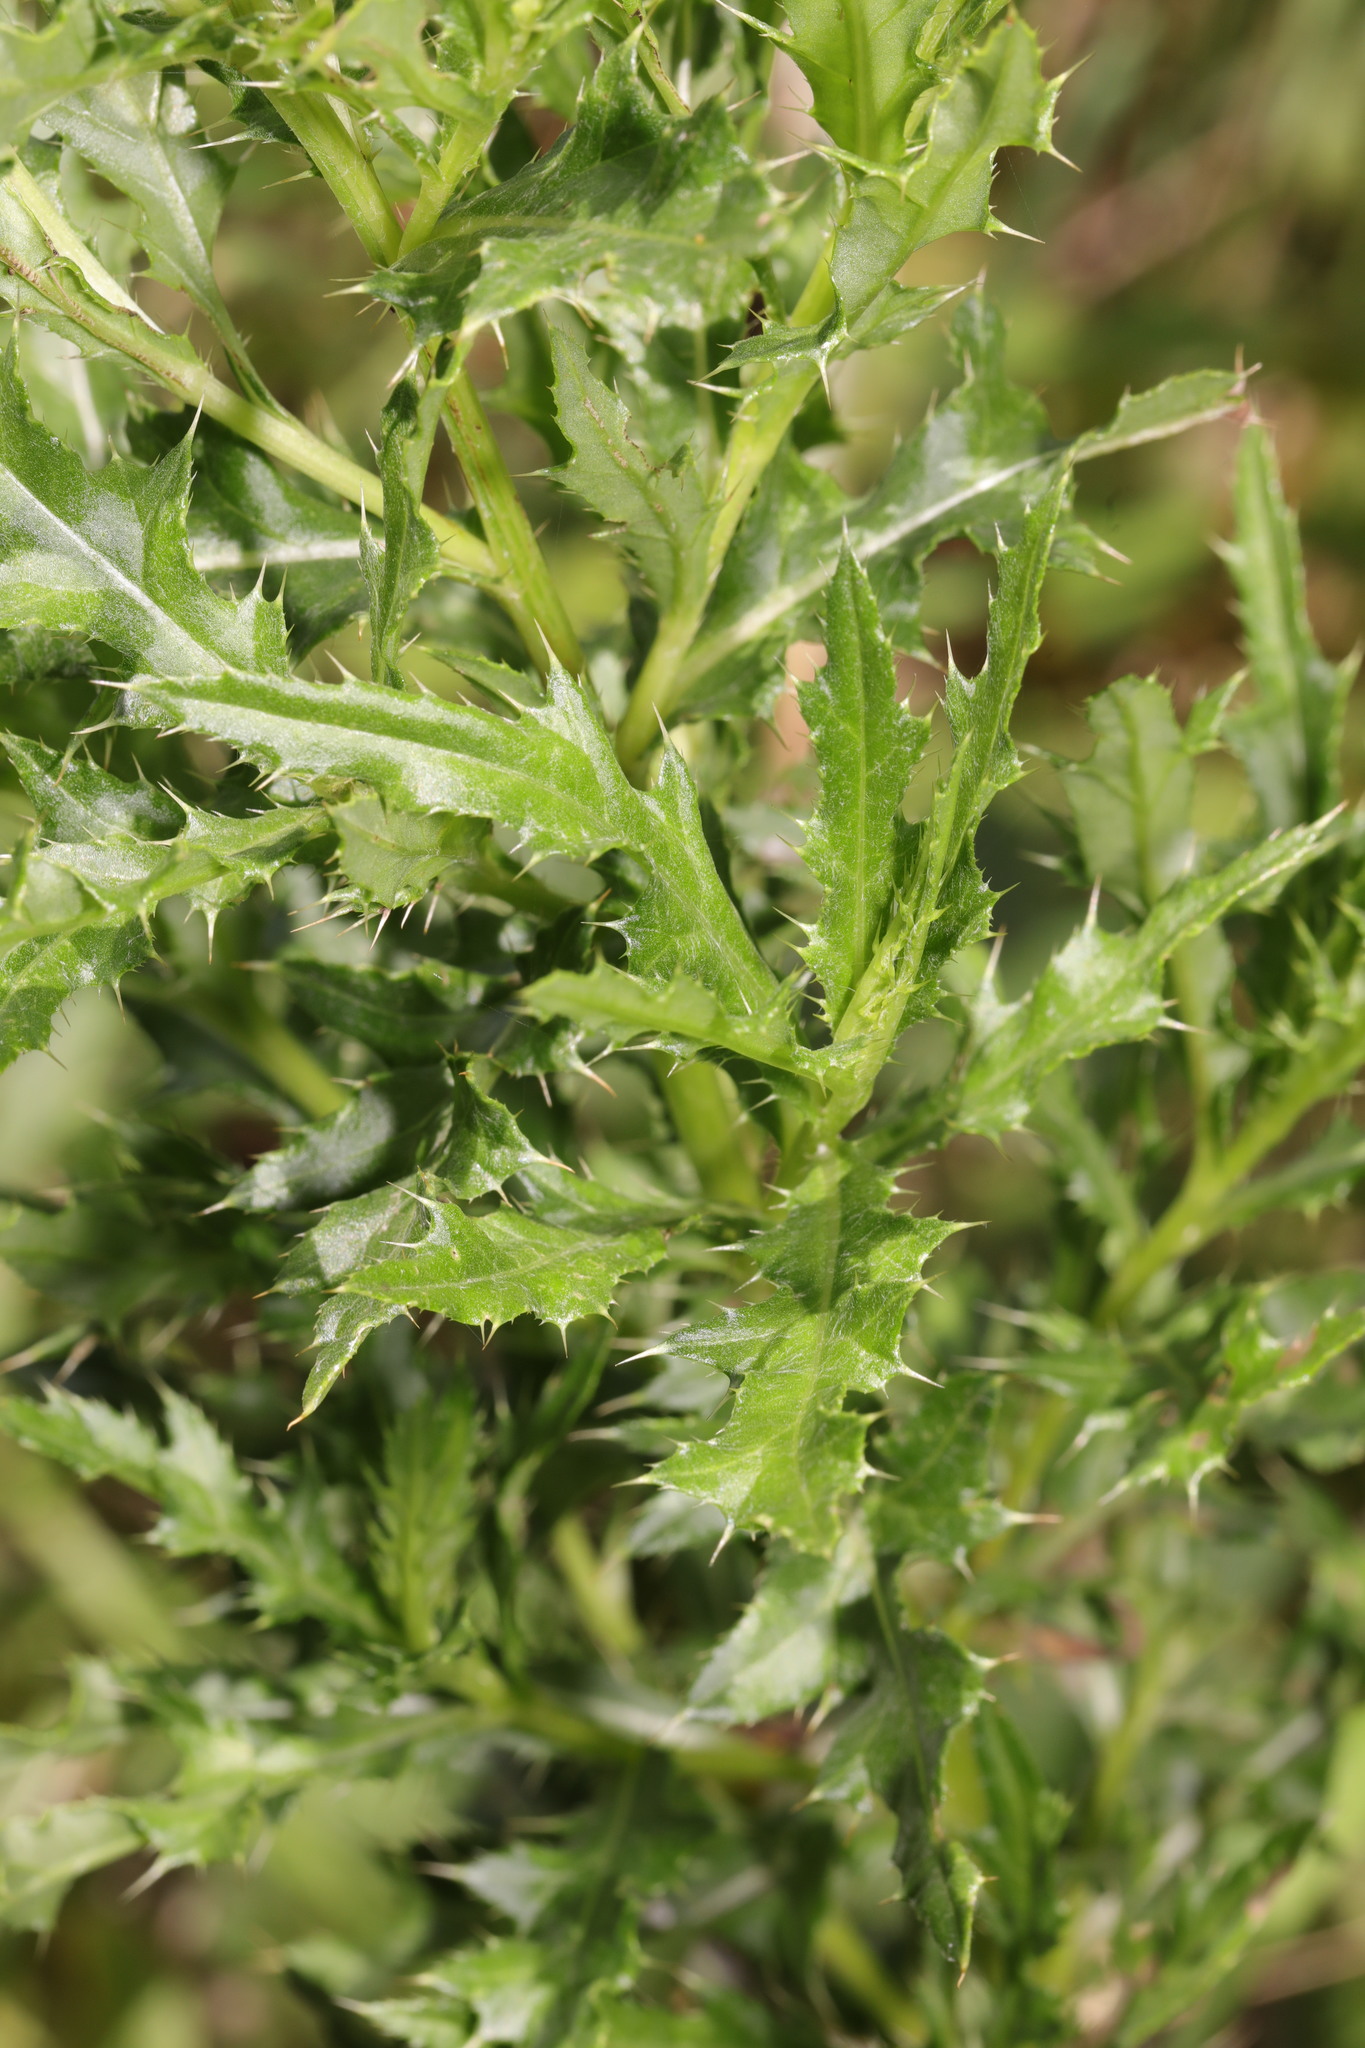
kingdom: Plantae
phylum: Tracheophyta
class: Magnoliopsida
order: Asterales
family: Asteraceae
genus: Cirsium
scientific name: Cirsium arvense
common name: Creeping thistle
